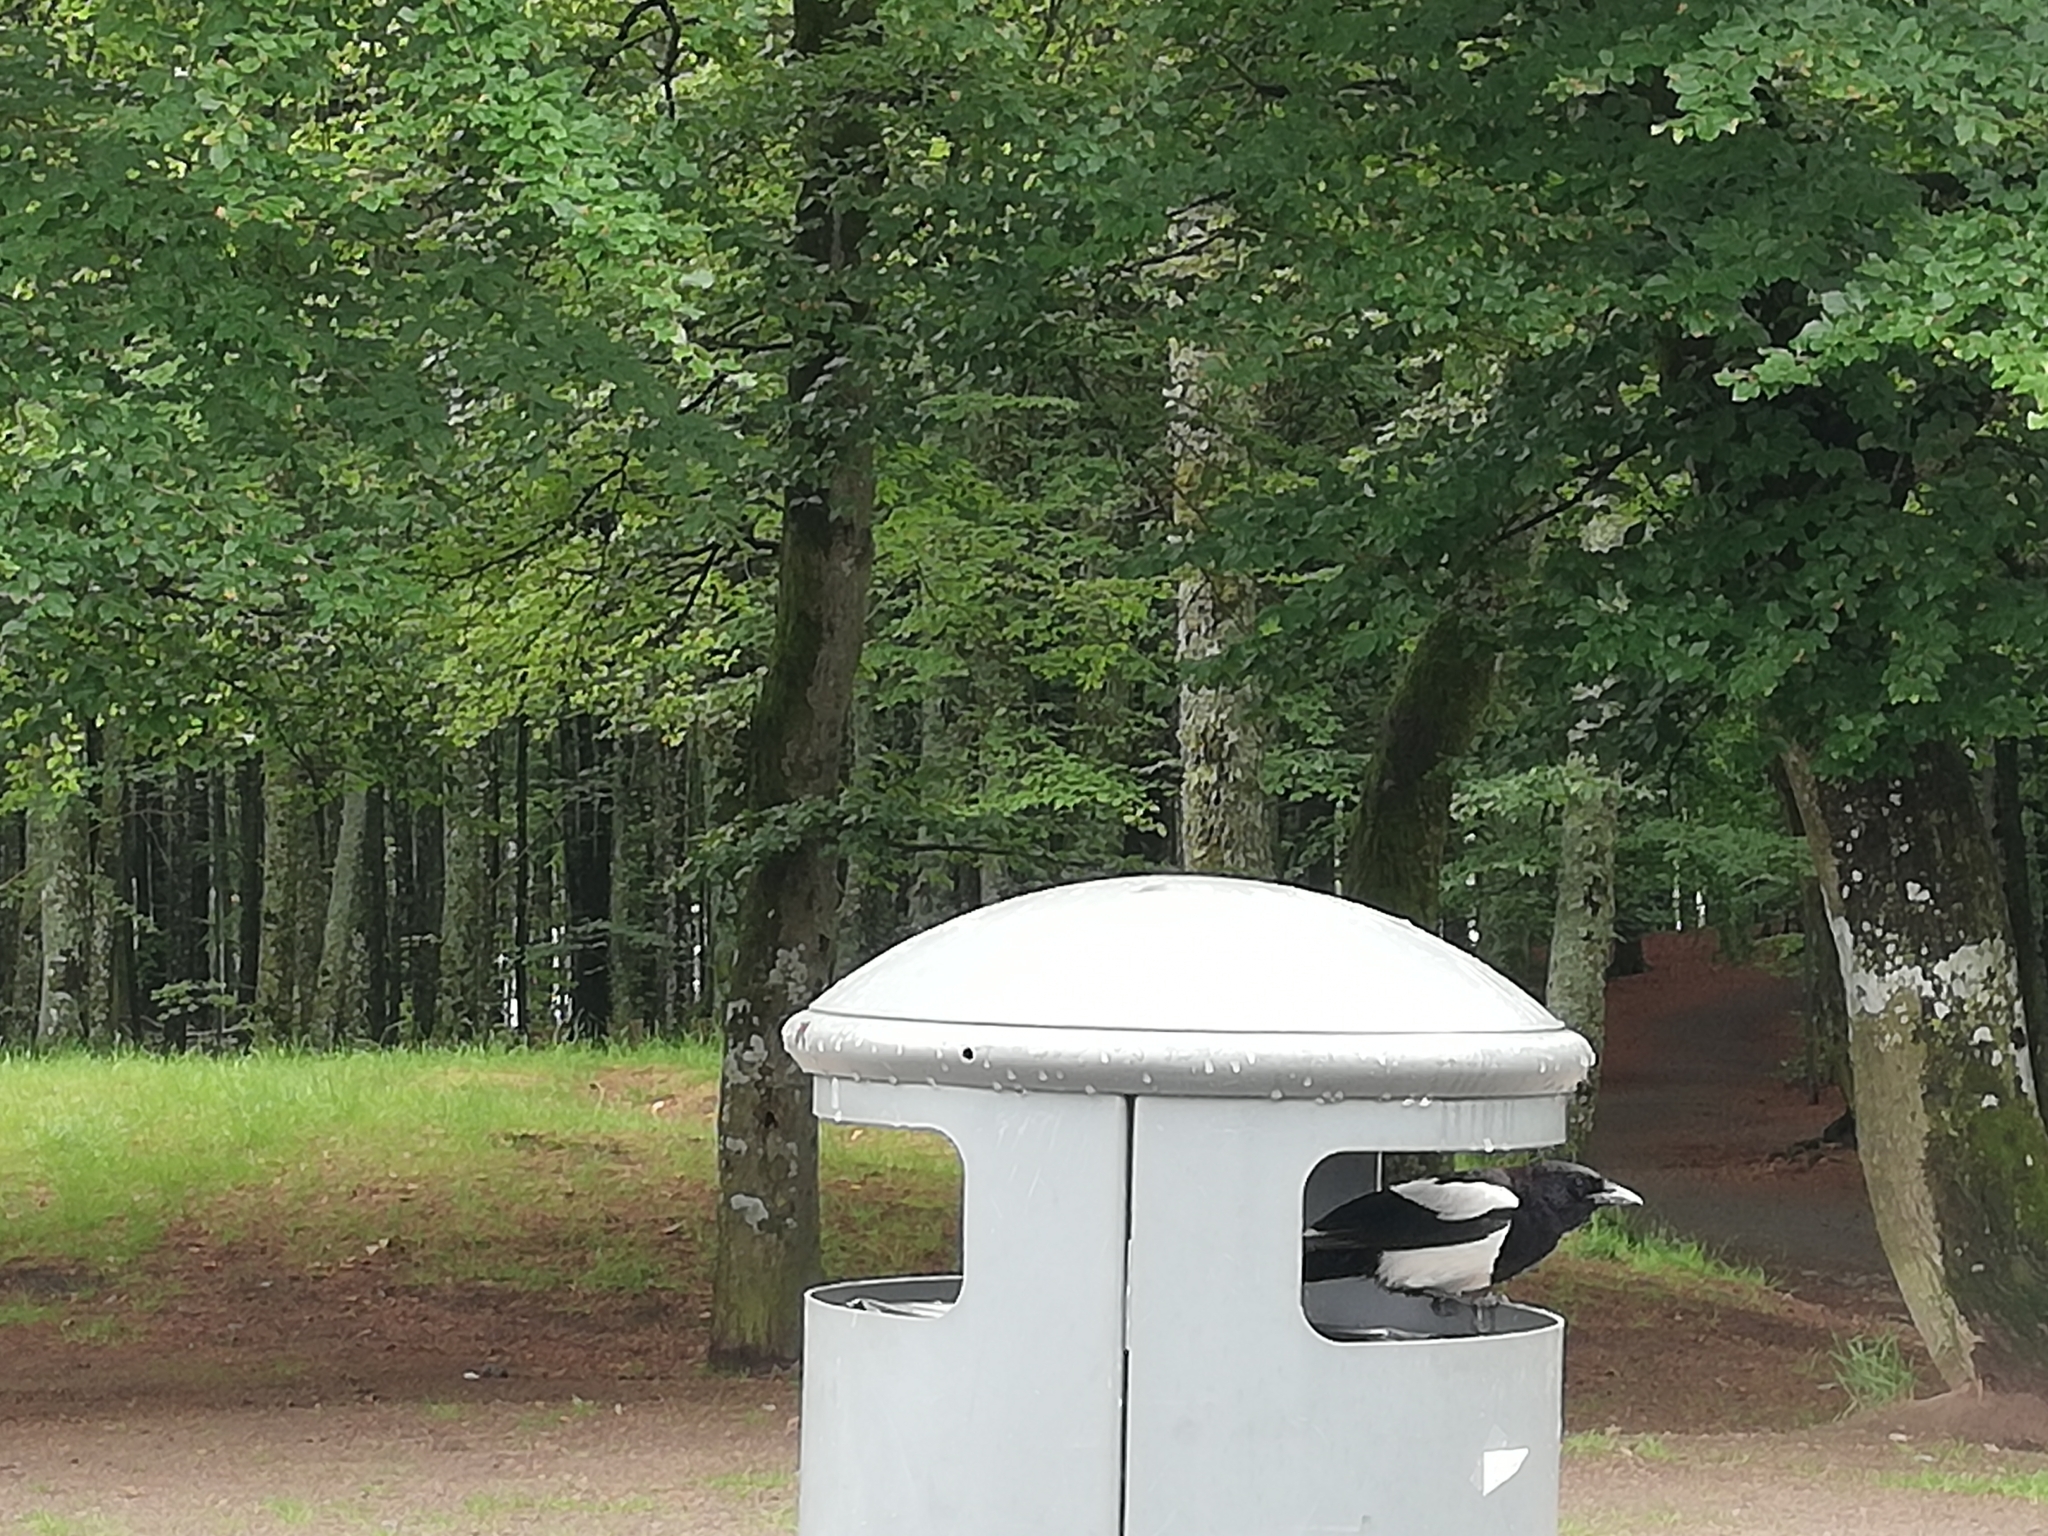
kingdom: Animalia
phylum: Chordata
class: Aves
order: Passeriformes
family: Corvidae
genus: Pica
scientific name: Pica pica
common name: Eurasian magpie
